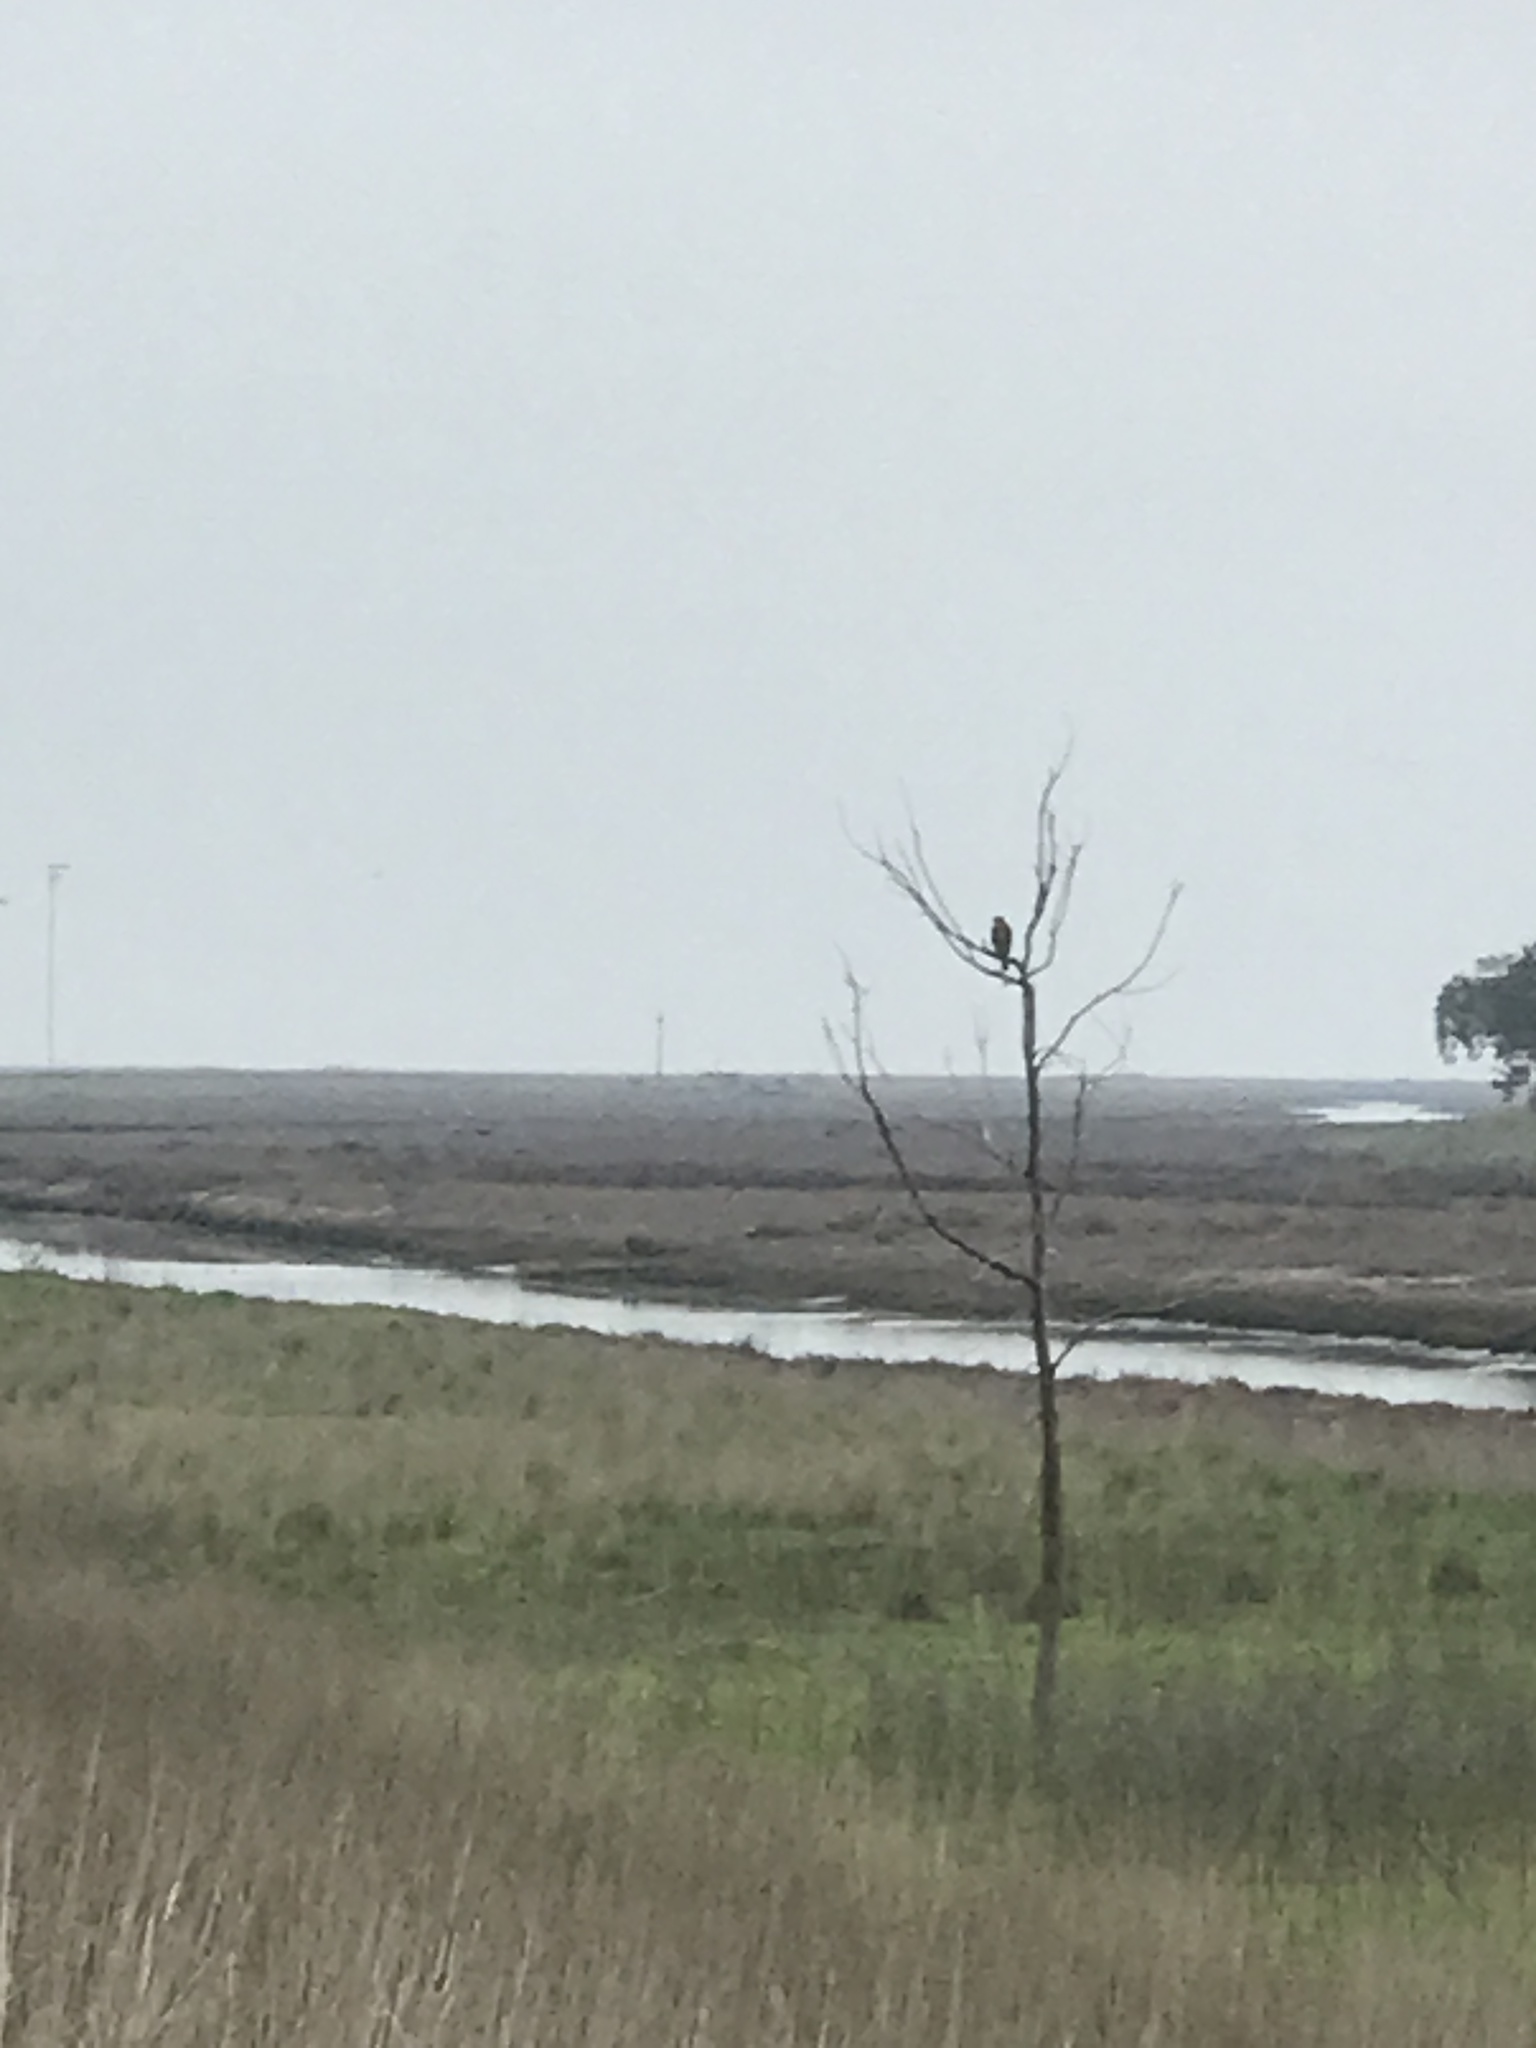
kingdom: Animalia
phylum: Chordata
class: Aves
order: Accipitriformes
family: Accipitridae
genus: Buteo
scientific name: Buteo lineatus
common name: Red-shouldered hawk
